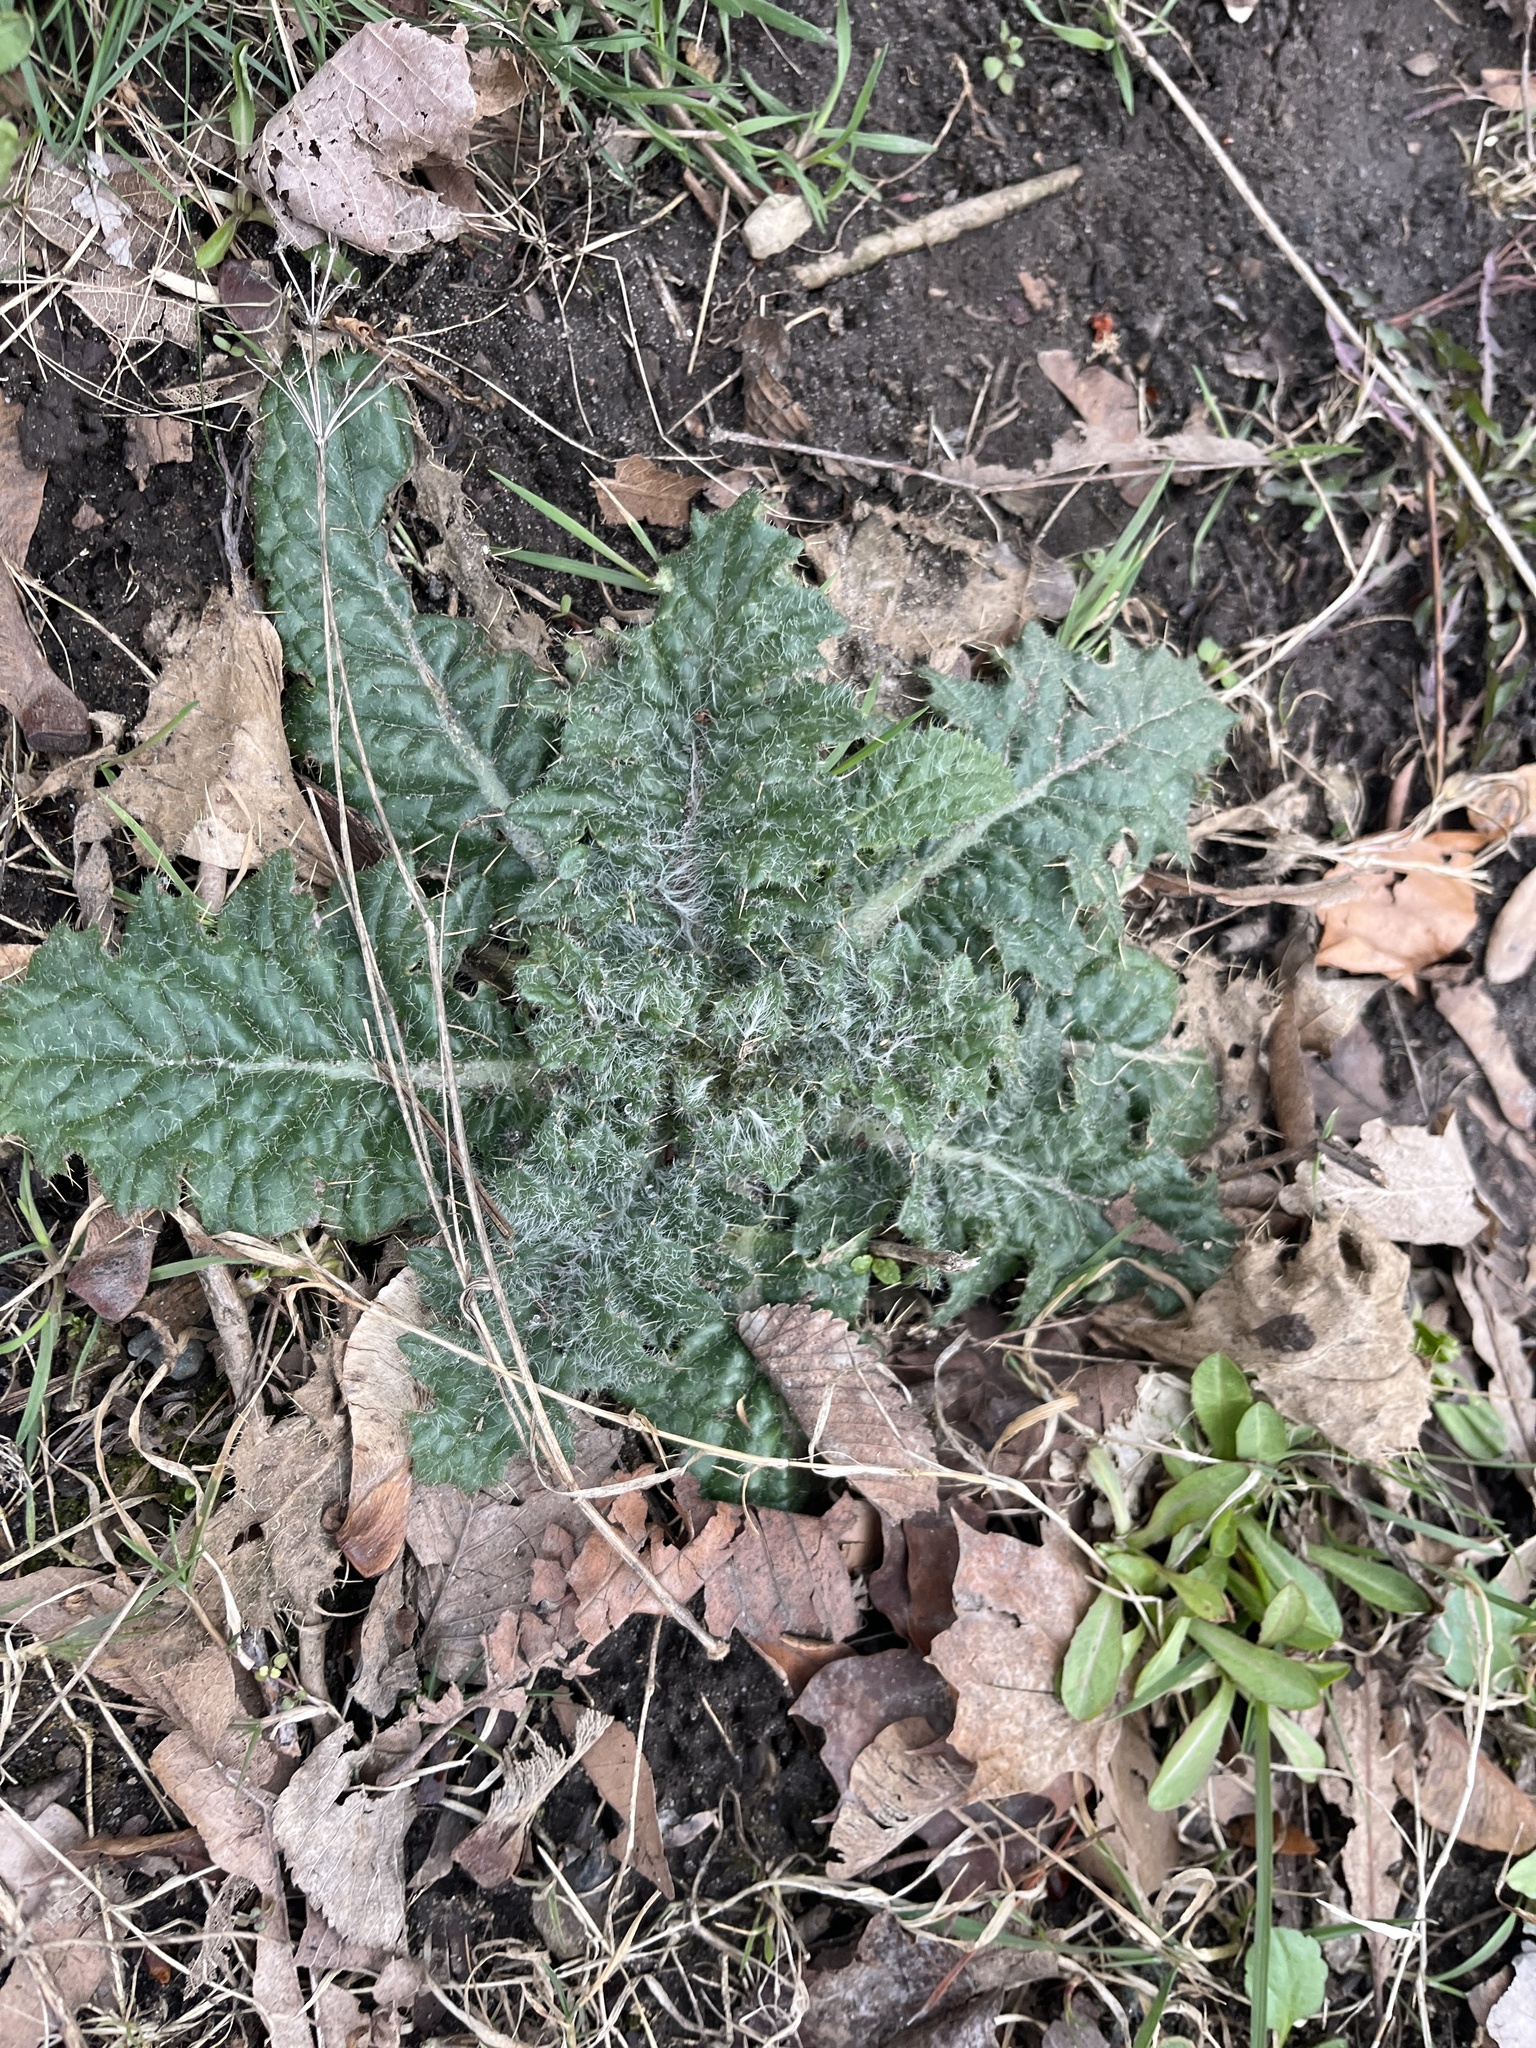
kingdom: Plantae
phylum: Tracheophyta
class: Magnoliopsida
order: Asterales
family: Asteraceae
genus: Cirsium
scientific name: Cirsium vulgare
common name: Bull thistle
